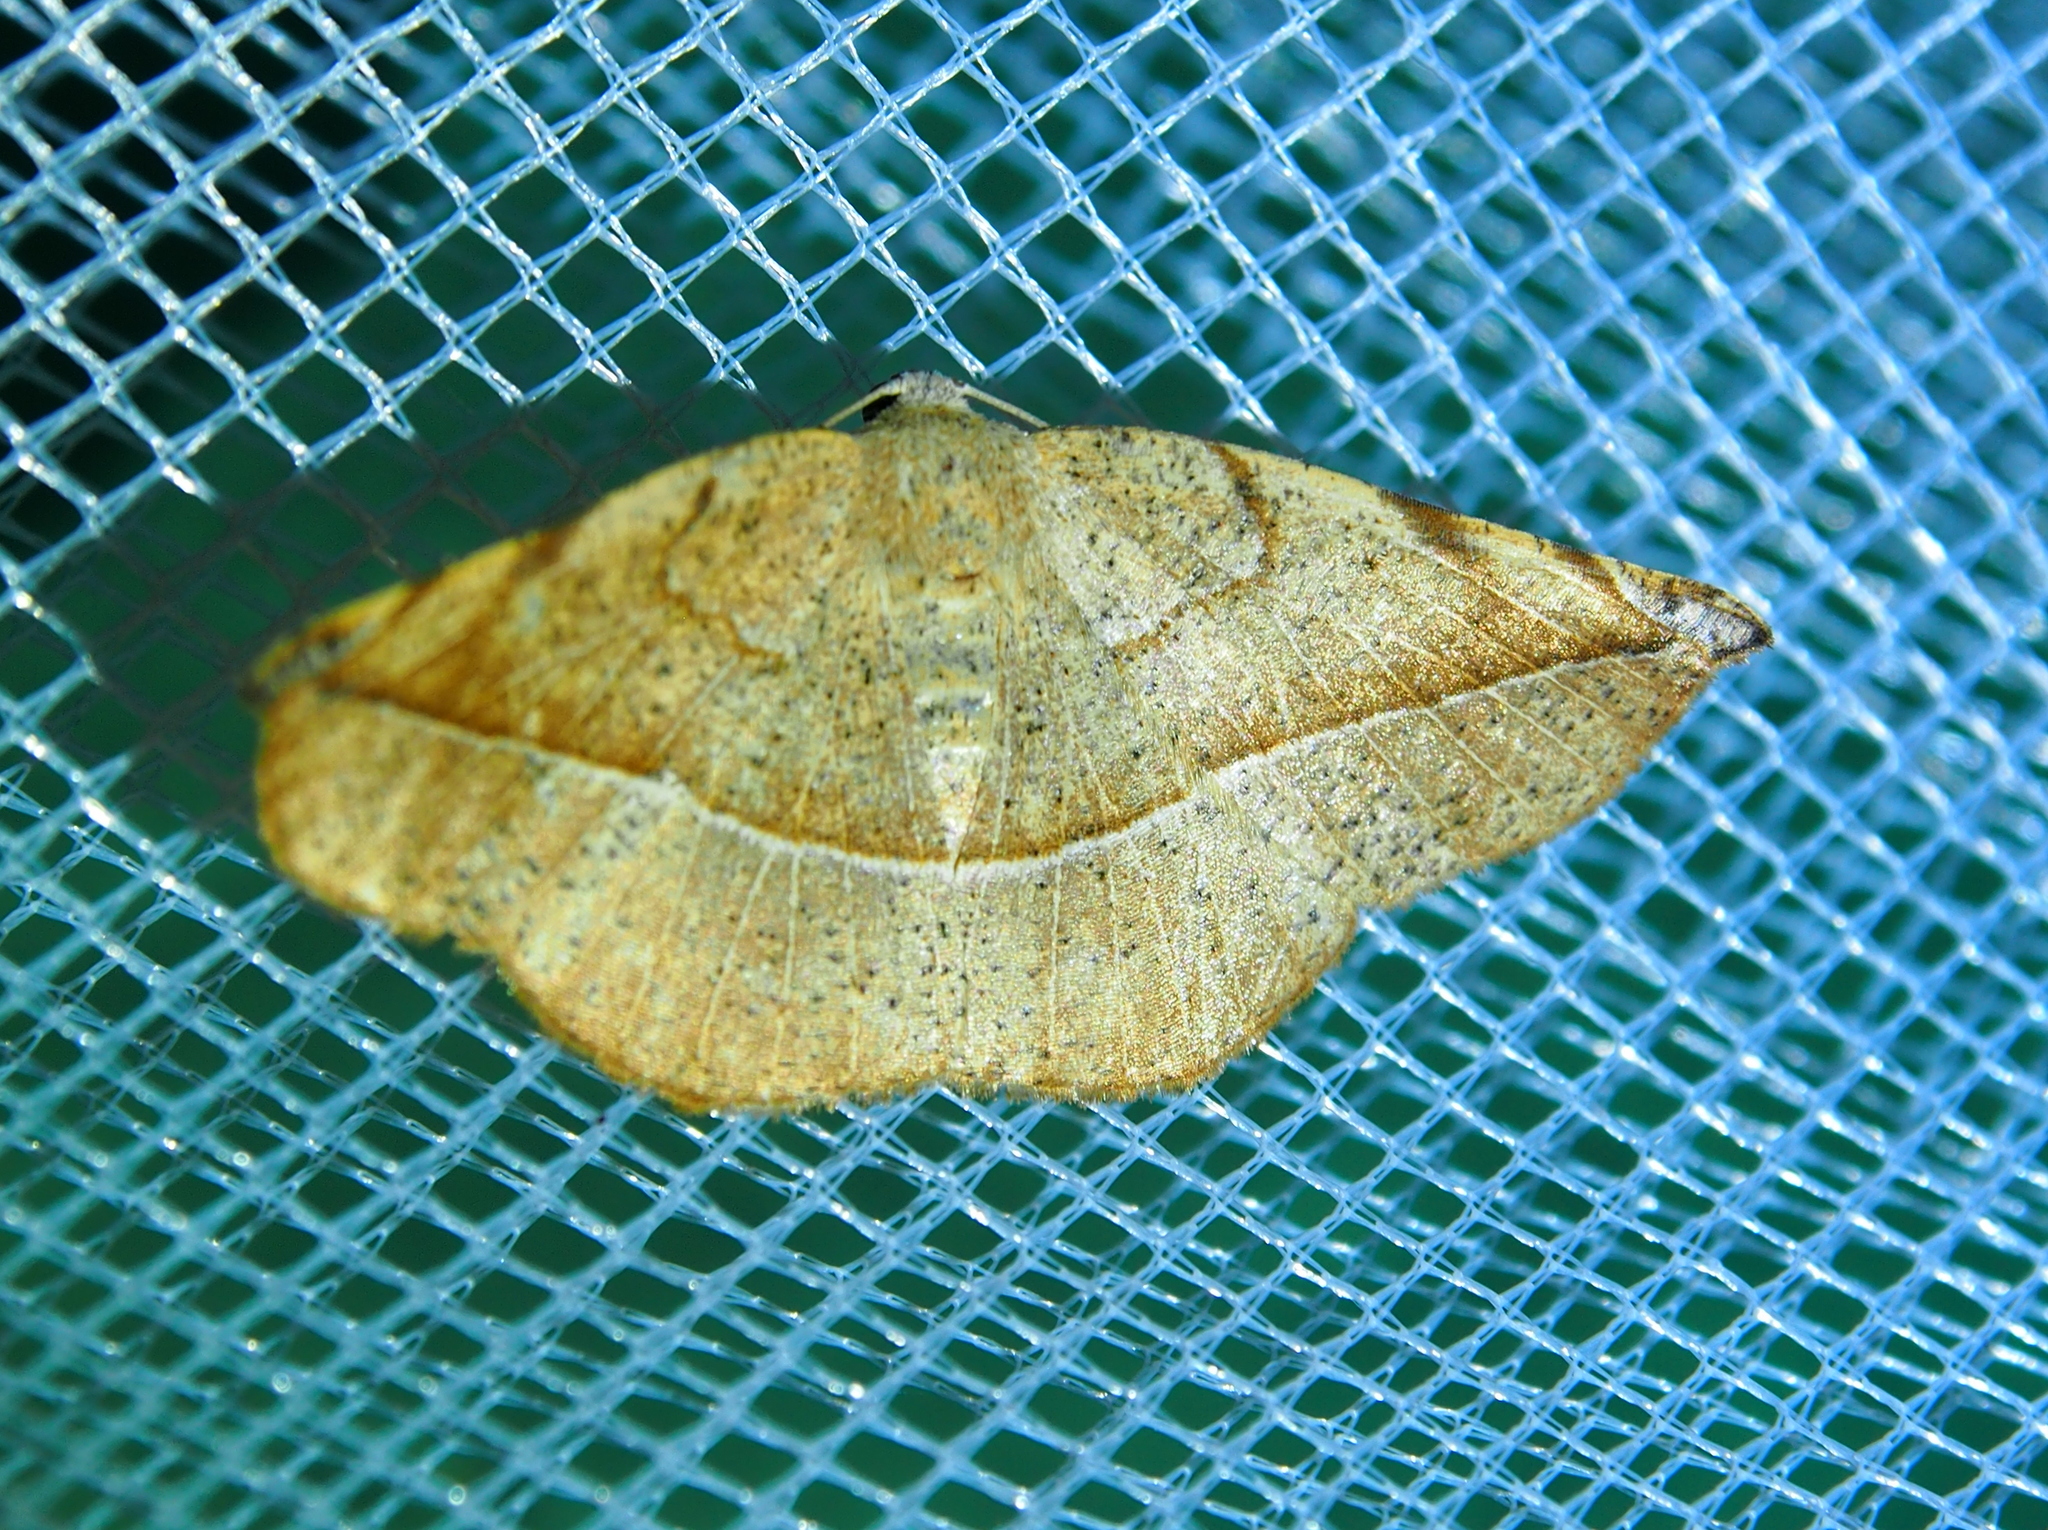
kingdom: Animalia
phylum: Arthropoda
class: Insecta
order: Lepidoptera
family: Geometridae
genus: Eusarca
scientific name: Eusarca cayennaria
